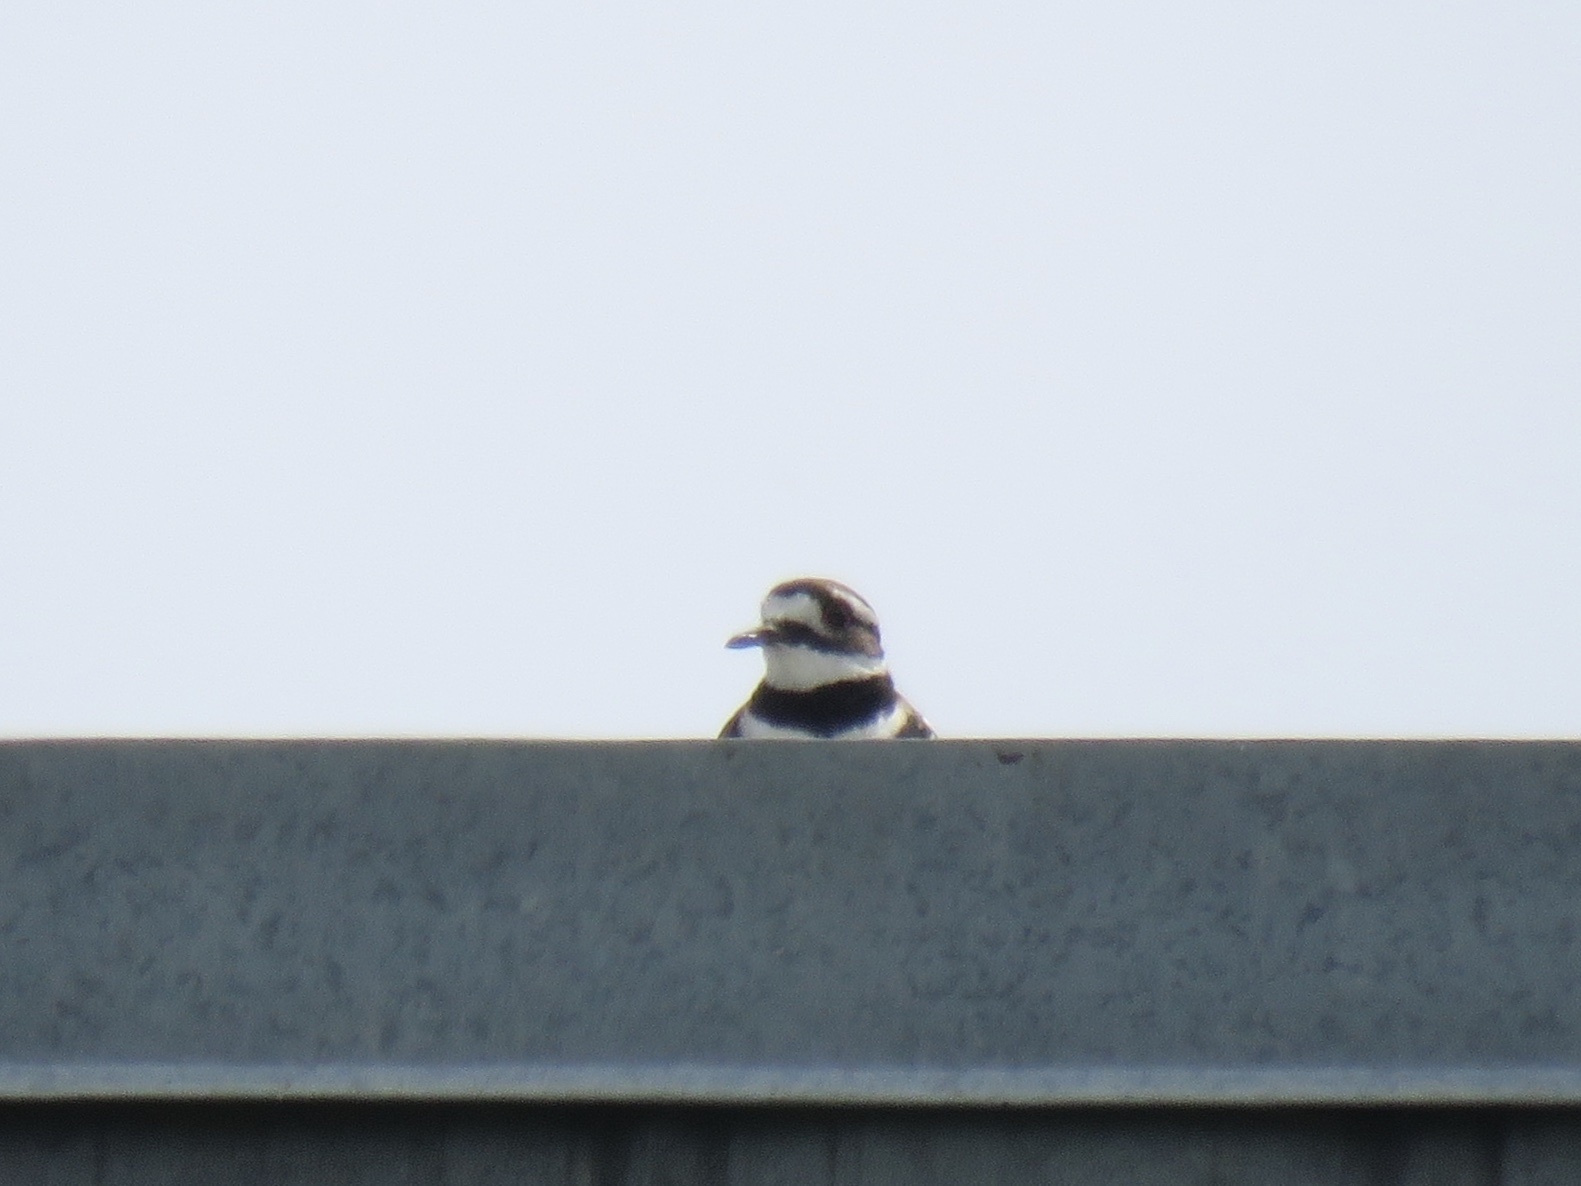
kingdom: Animalia
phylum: Chordata
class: Aves
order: Charadriiformes
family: Charadriidae
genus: Charadrius
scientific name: Charadrius vociferus
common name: Killdeer
